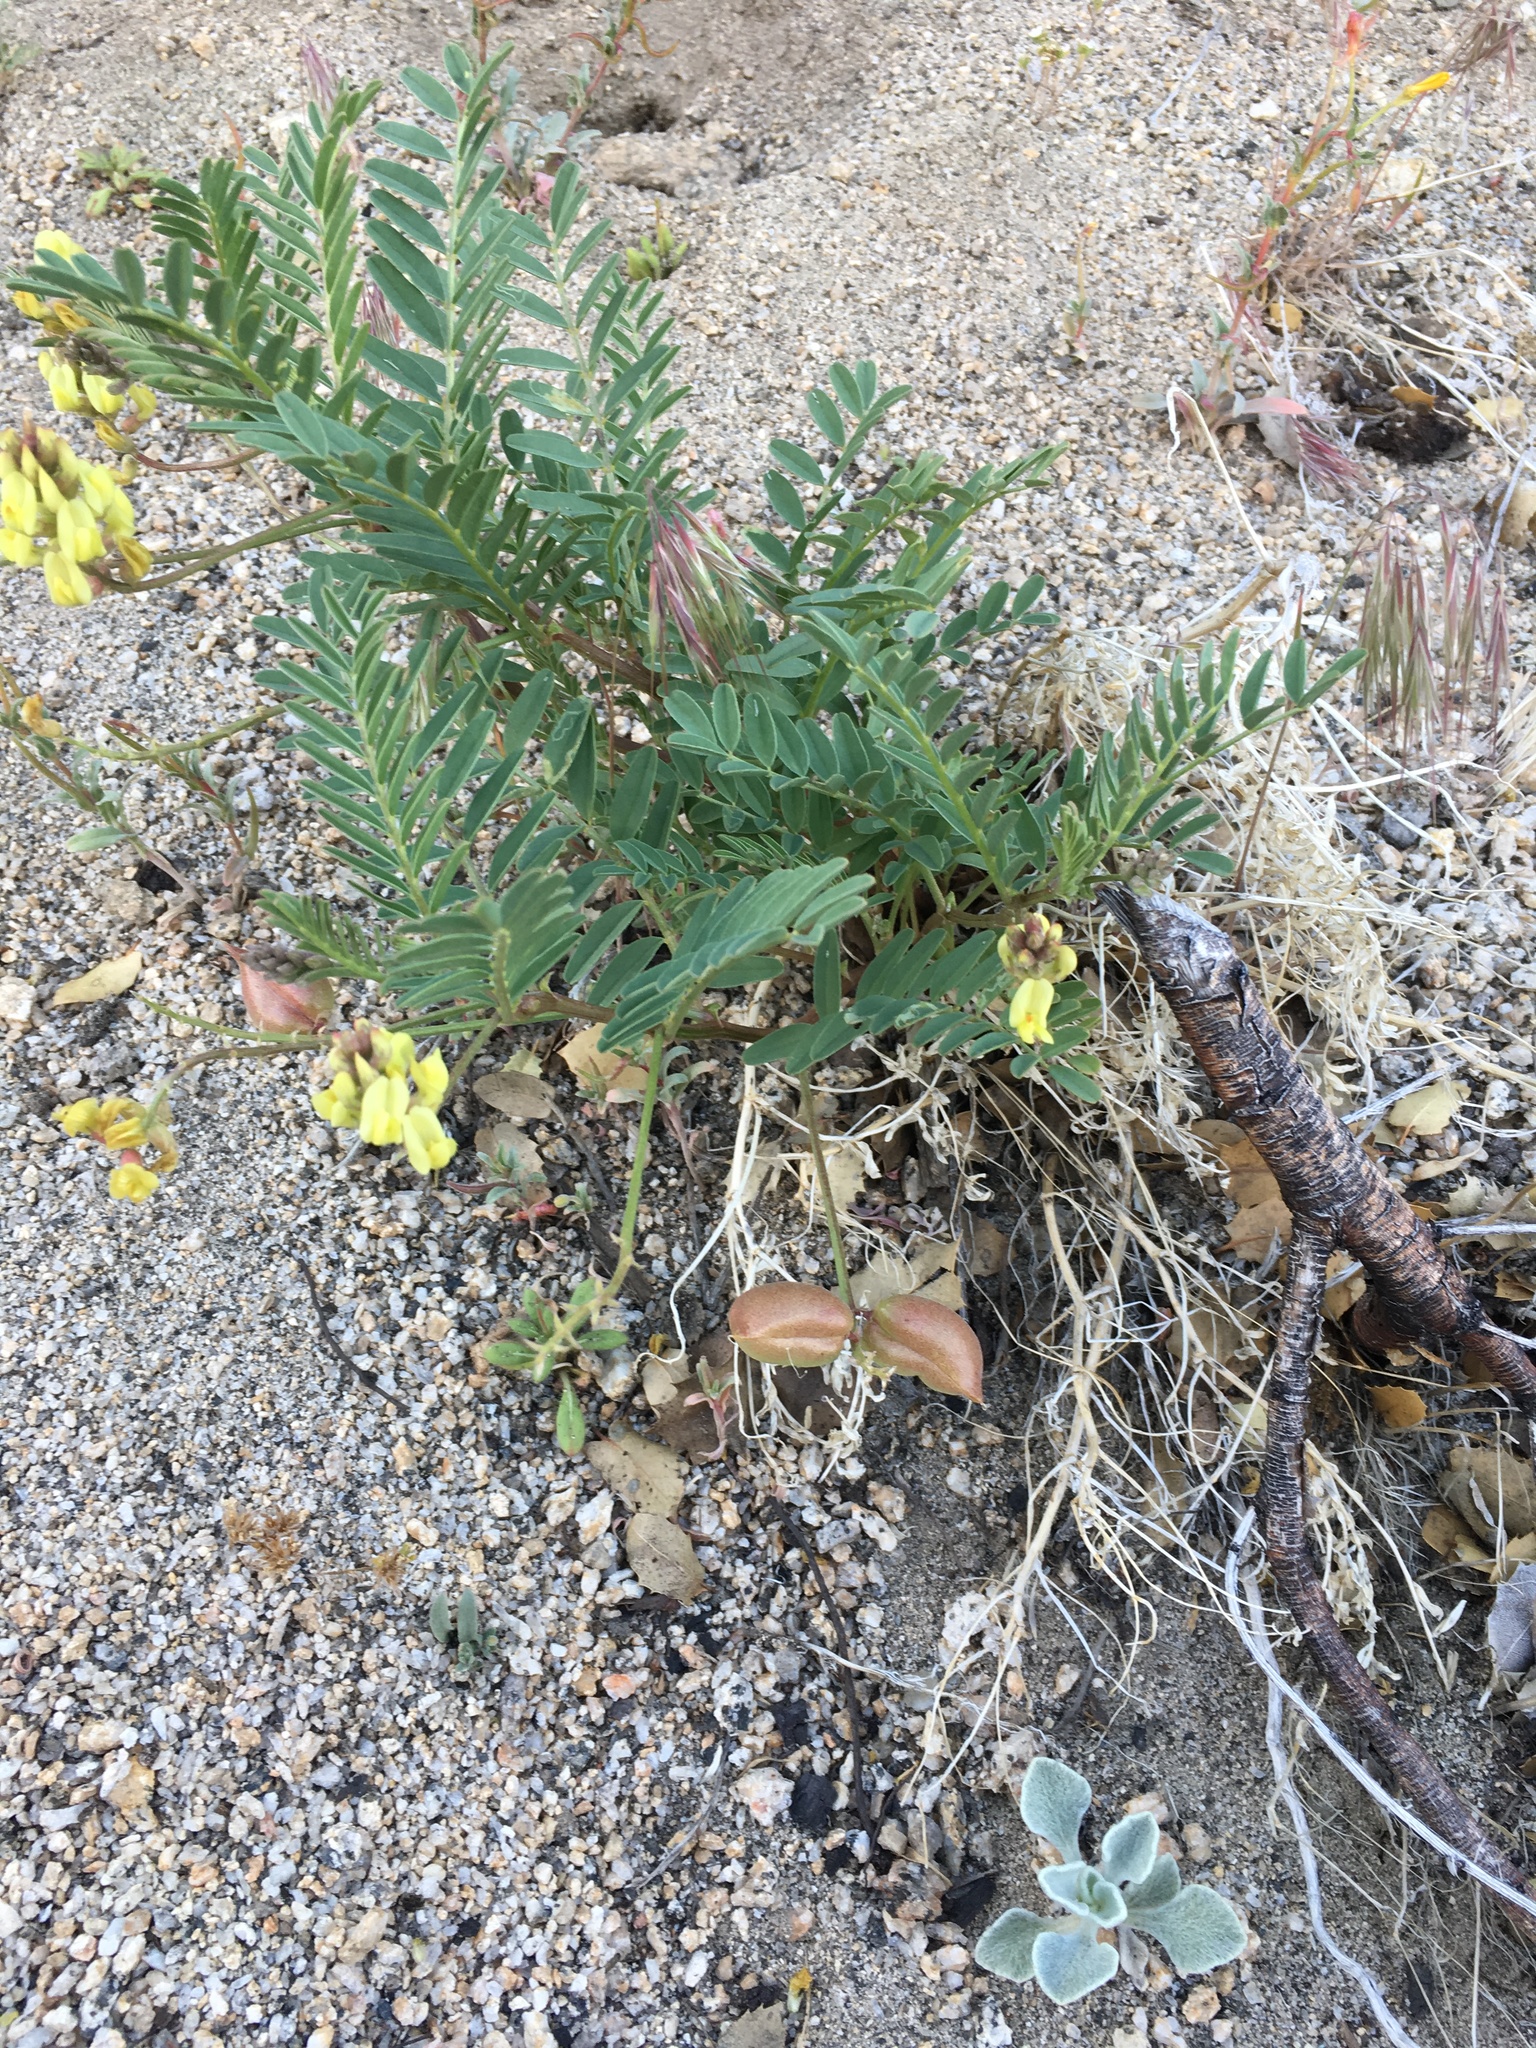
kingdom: Plantae
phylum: Tracheophyta
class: Magnoliopsida
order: Fabales
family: Fabaceae
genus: Astragalus
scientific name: Astragalus douglasii
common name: Jacumba milkvetch
